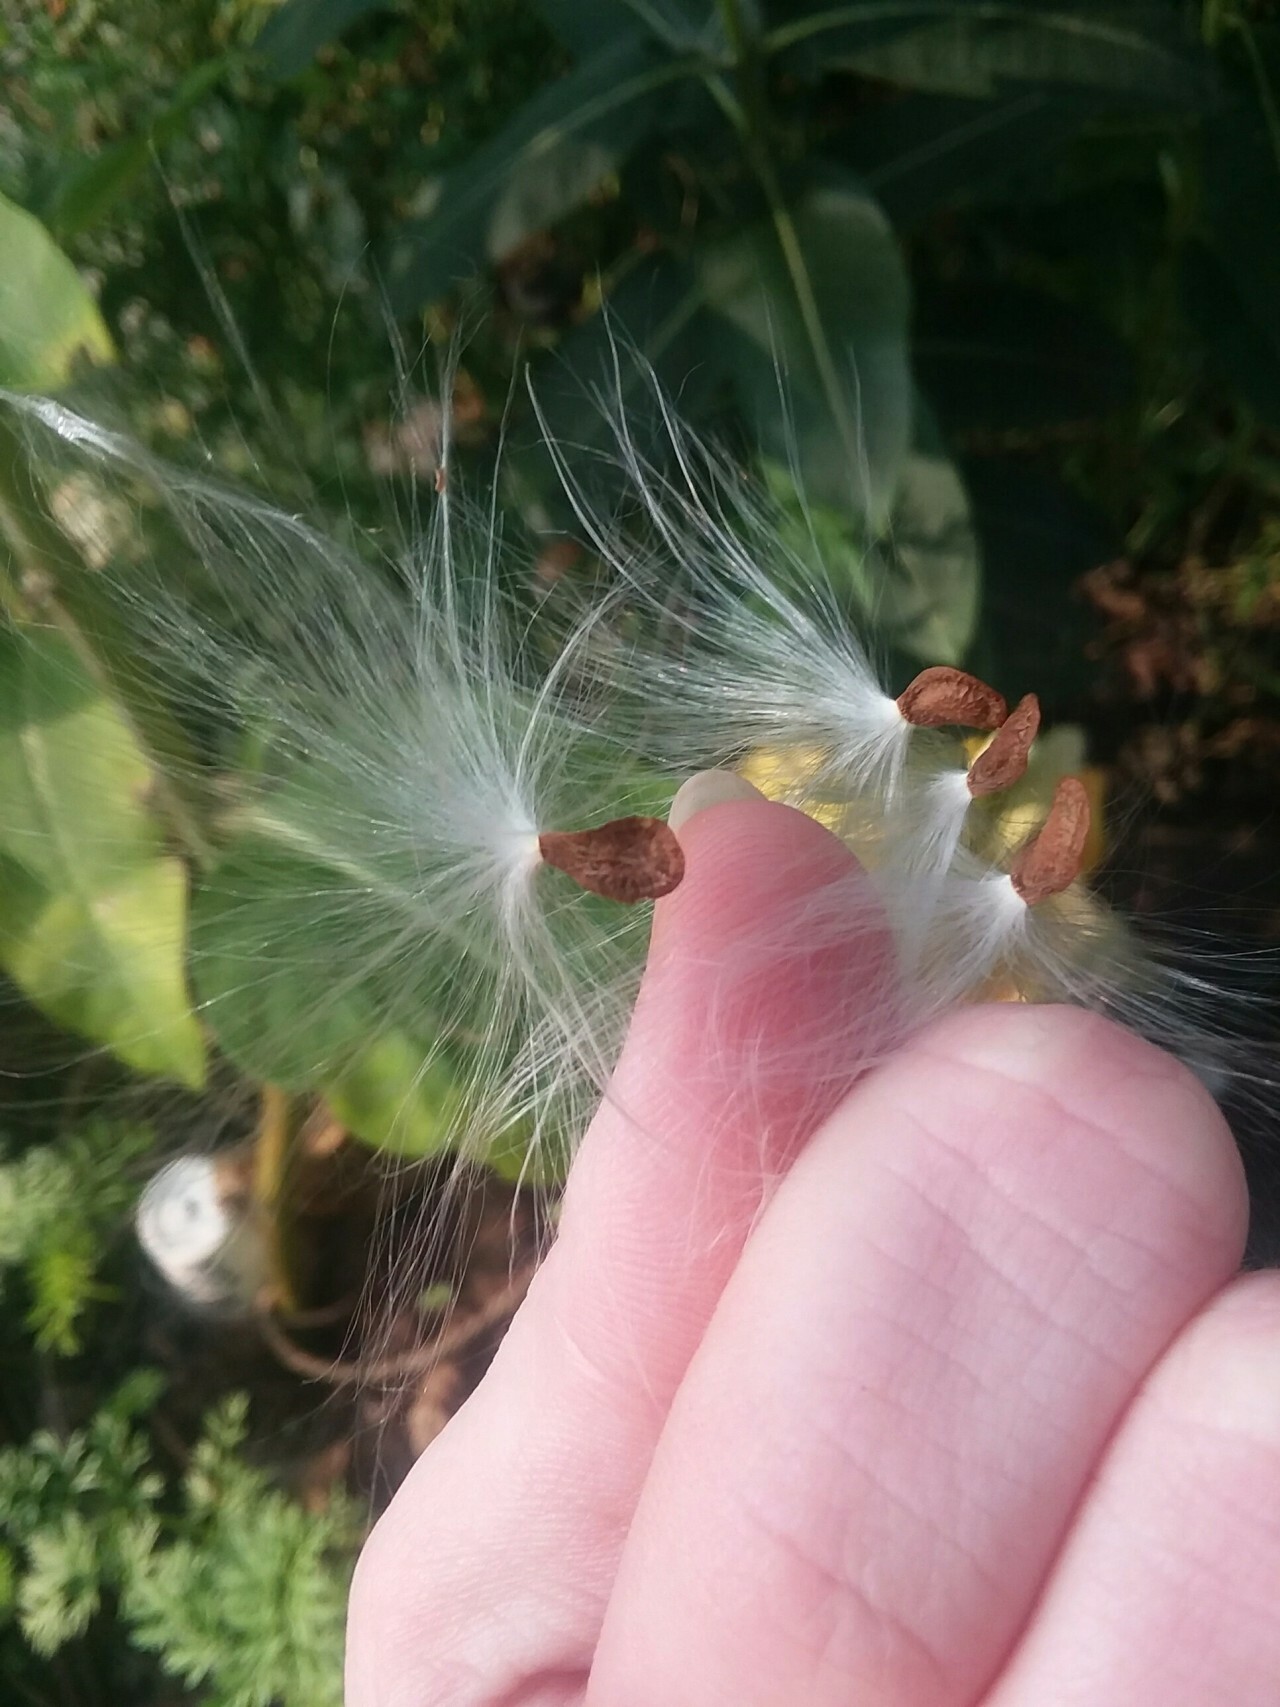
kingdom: Plantae
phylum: Tracheophyta
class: Magnoliopsida
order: Gentianales
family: Apocynaceae
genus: Asclepias
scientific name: Asclepias syriaca
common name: Common milkweed
